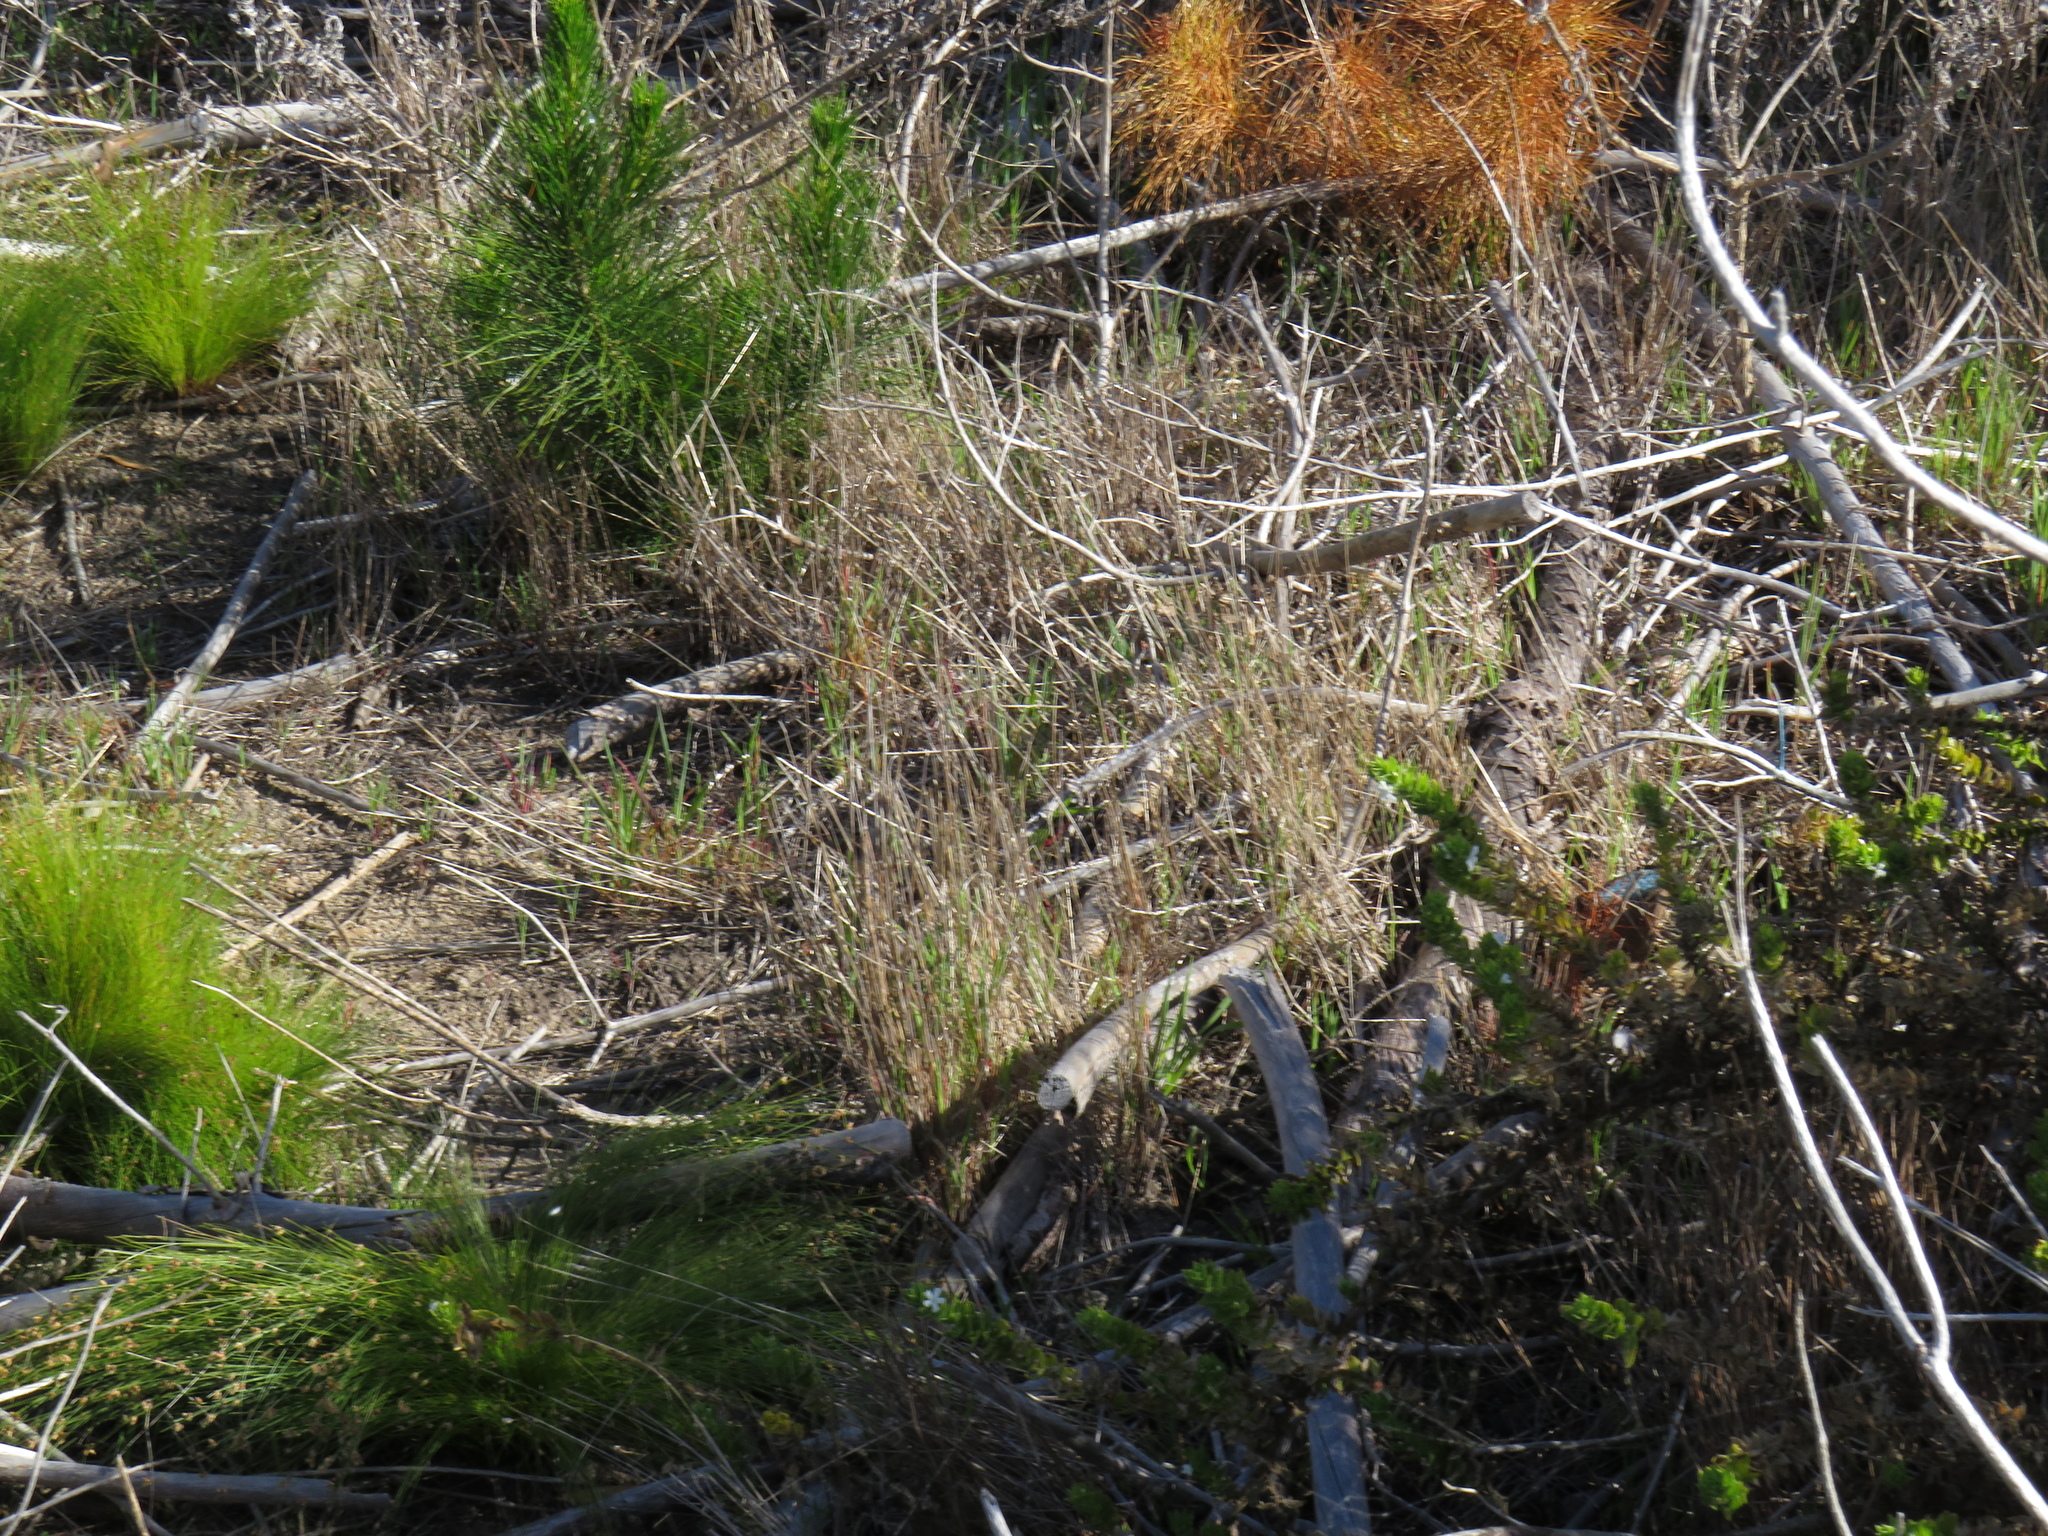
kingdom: Plantae
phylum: Tracheophyta
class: Pinopsida
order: Pinales
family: Pinaceae
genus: Pinus
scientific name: Pinus radiata
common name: Monterey pine
